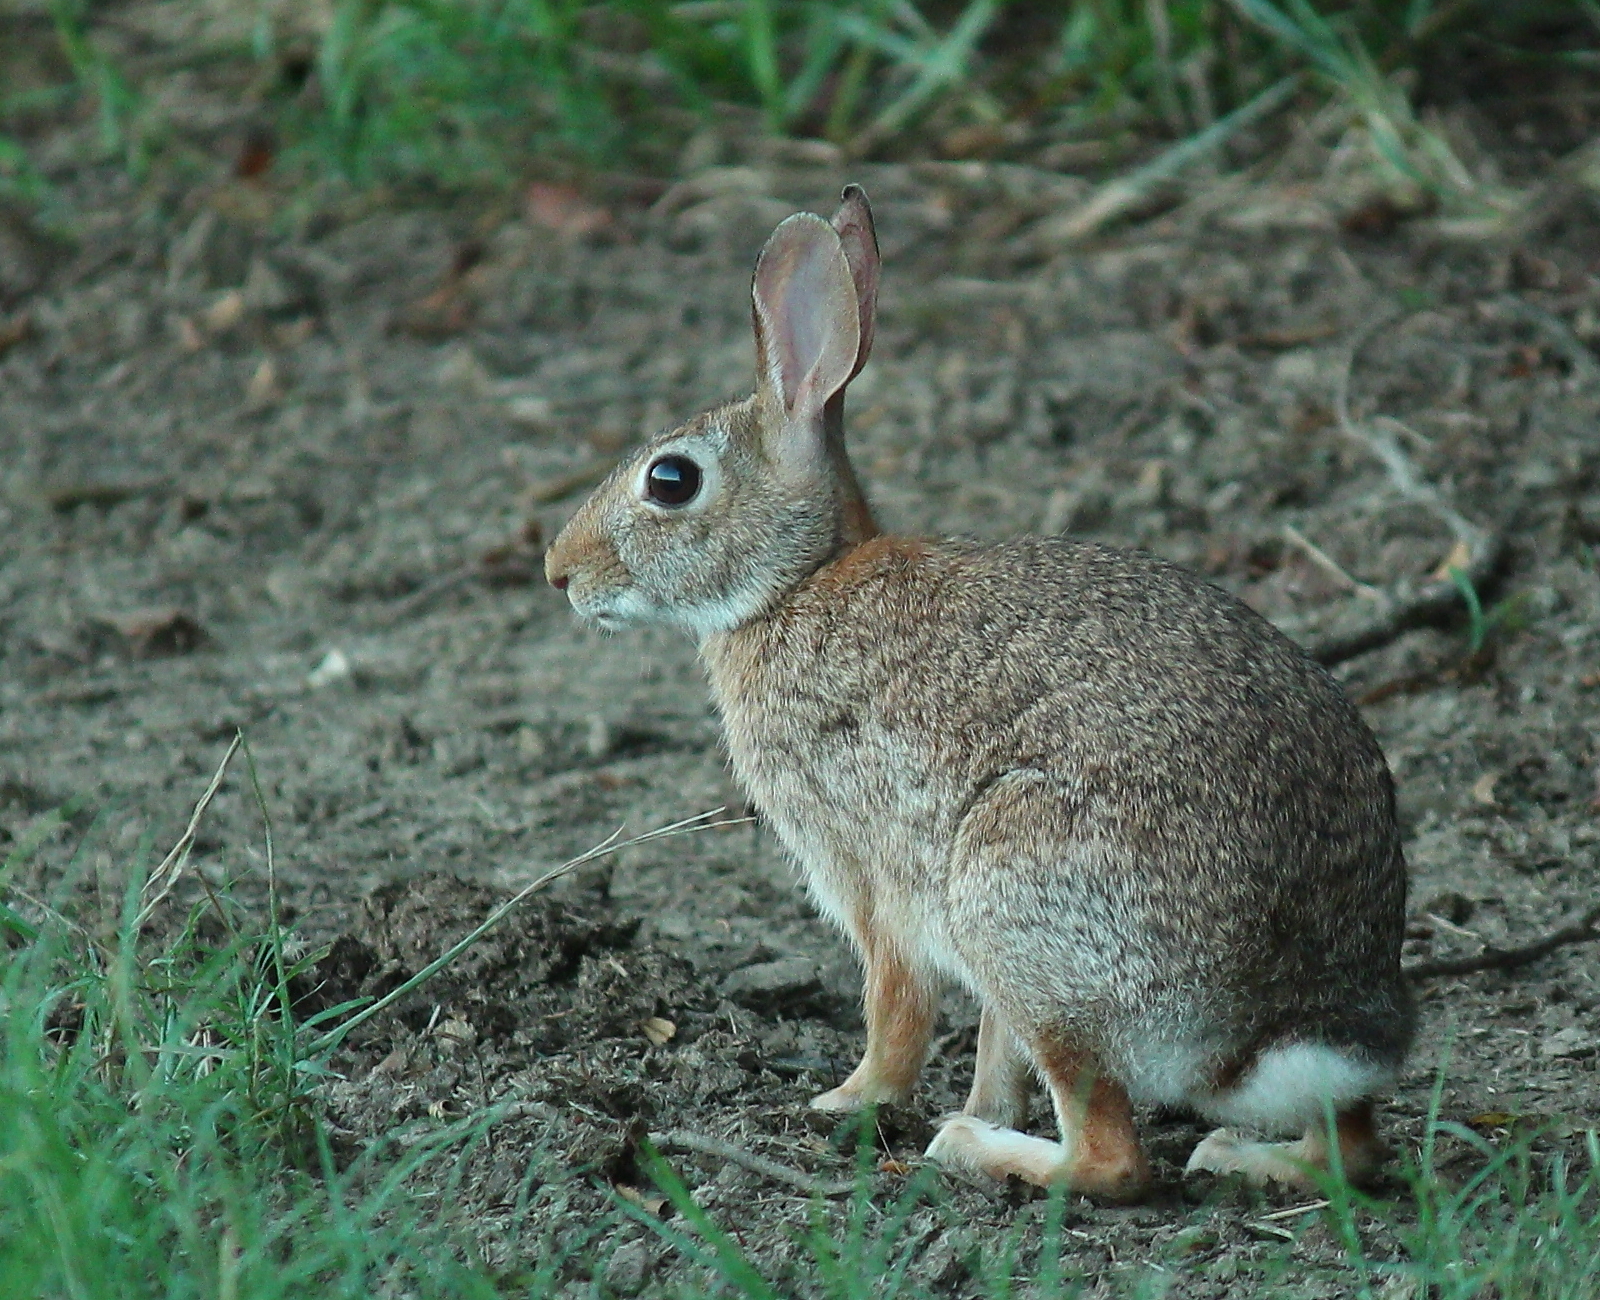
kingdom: Animalia
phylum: Chordata
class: Mammalia
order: Lagomorpha
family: Leporidae
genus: Sylvilagus
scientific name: Sylvilagus floridanus
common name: Eastern cottontail
